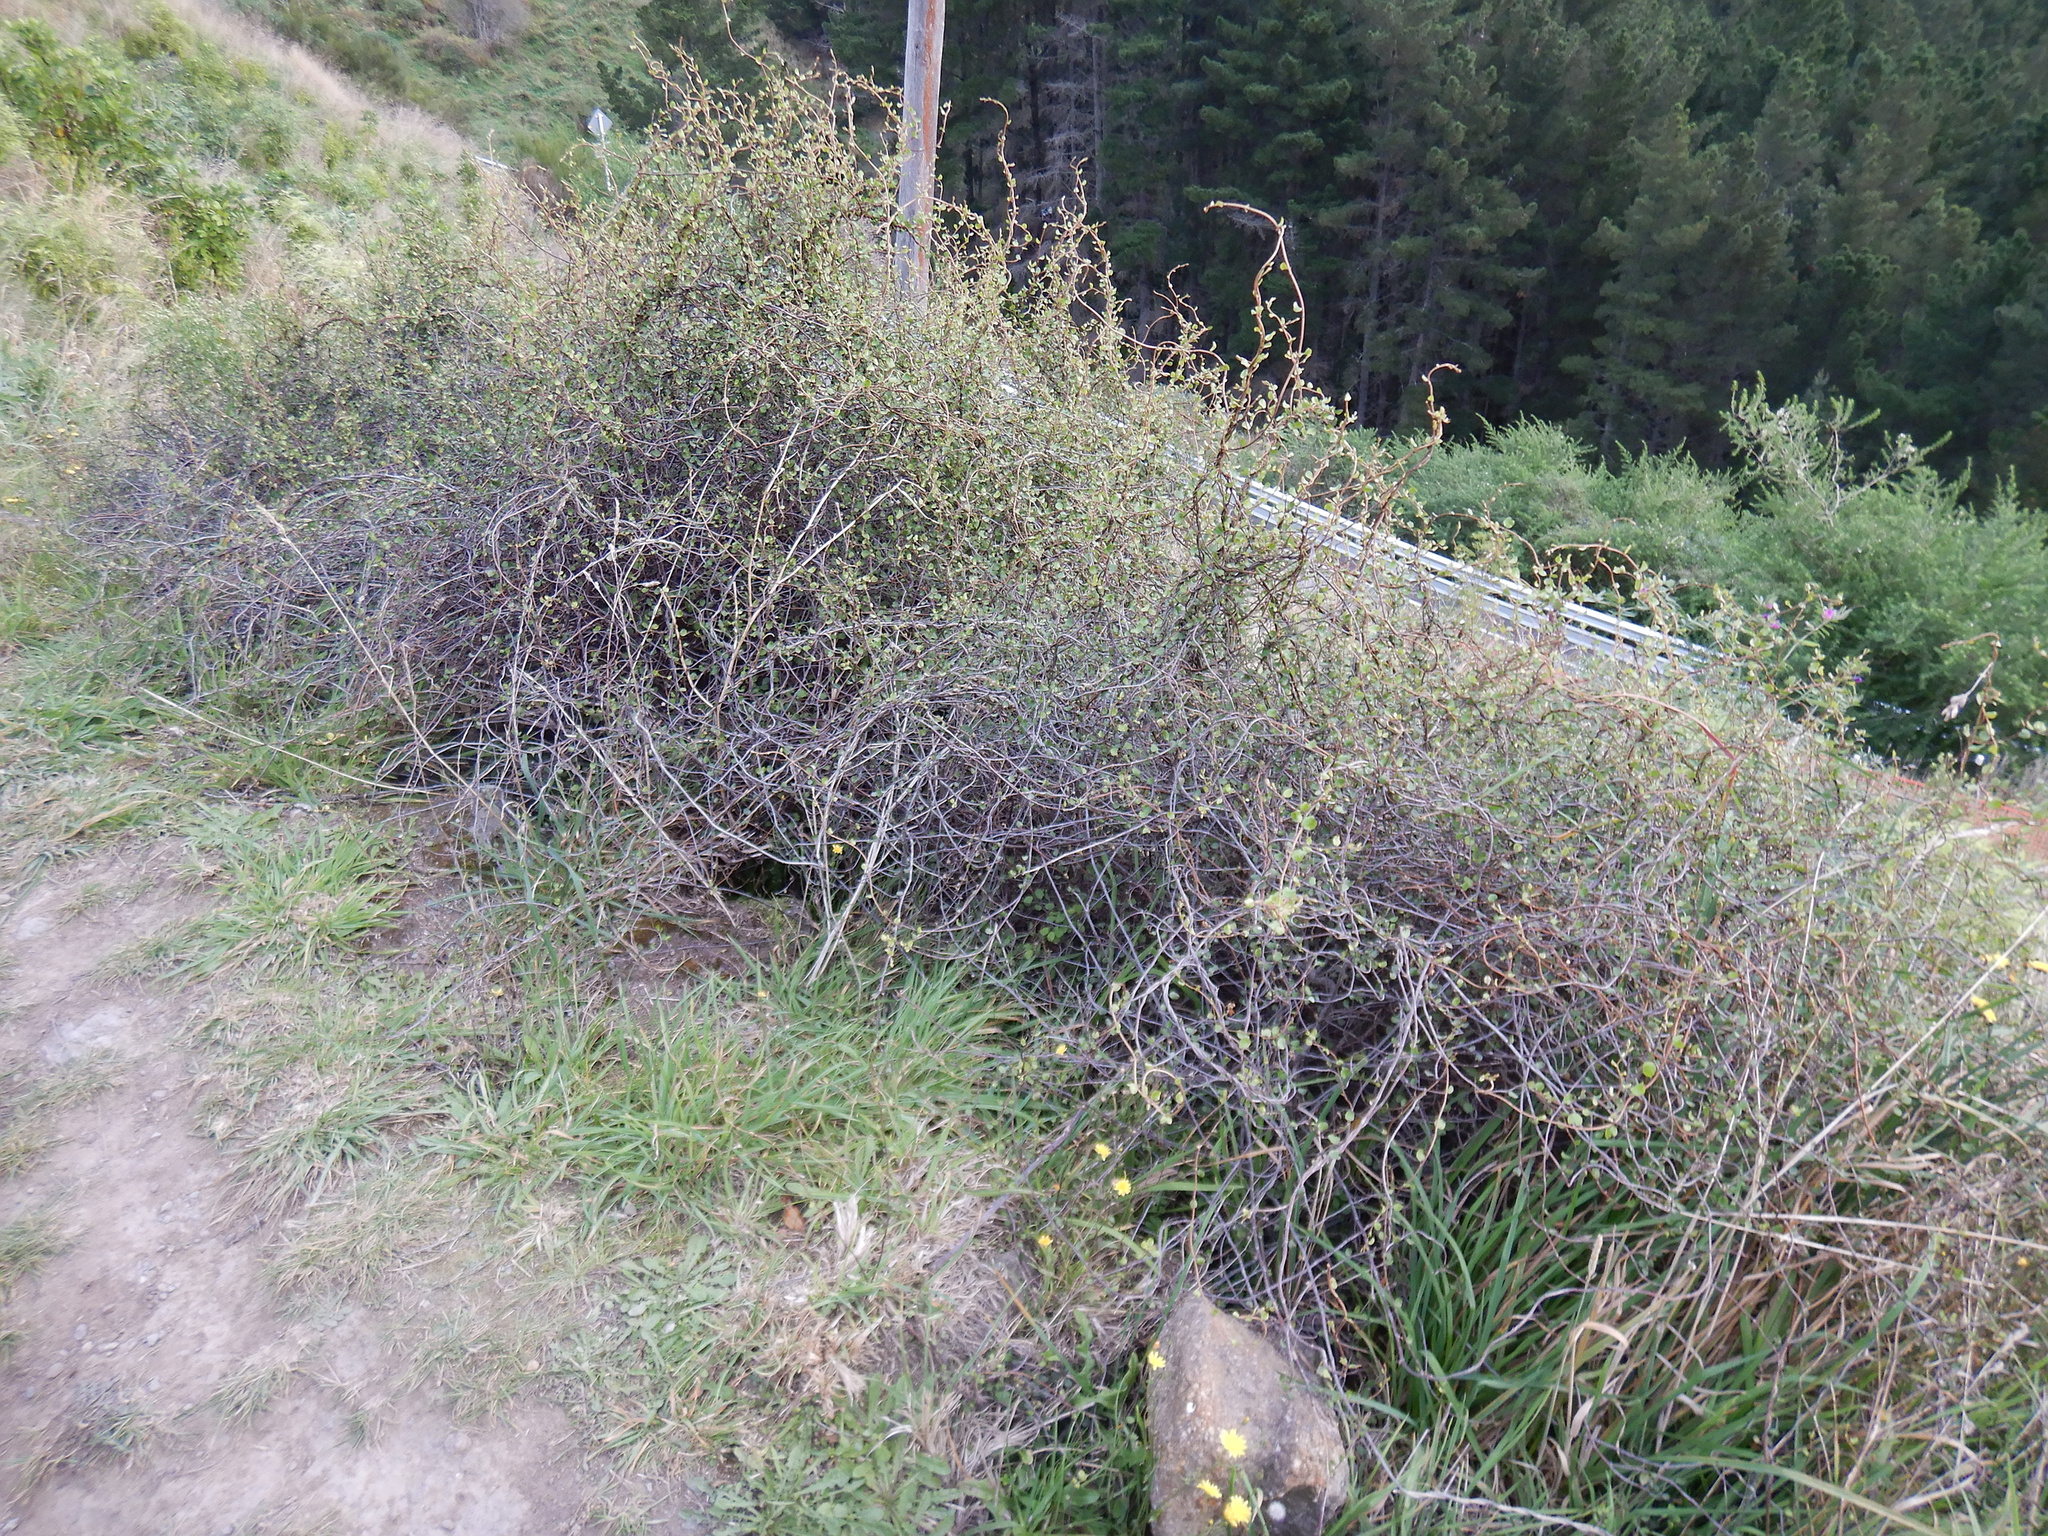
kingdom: Plantae
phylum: Tracheophyta
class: Magnoliopsida
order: Caryophyllales
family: Polygonaceae
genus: Muehlenbeckia
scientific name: Muehlenbeckia complexa
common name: Wireplant
